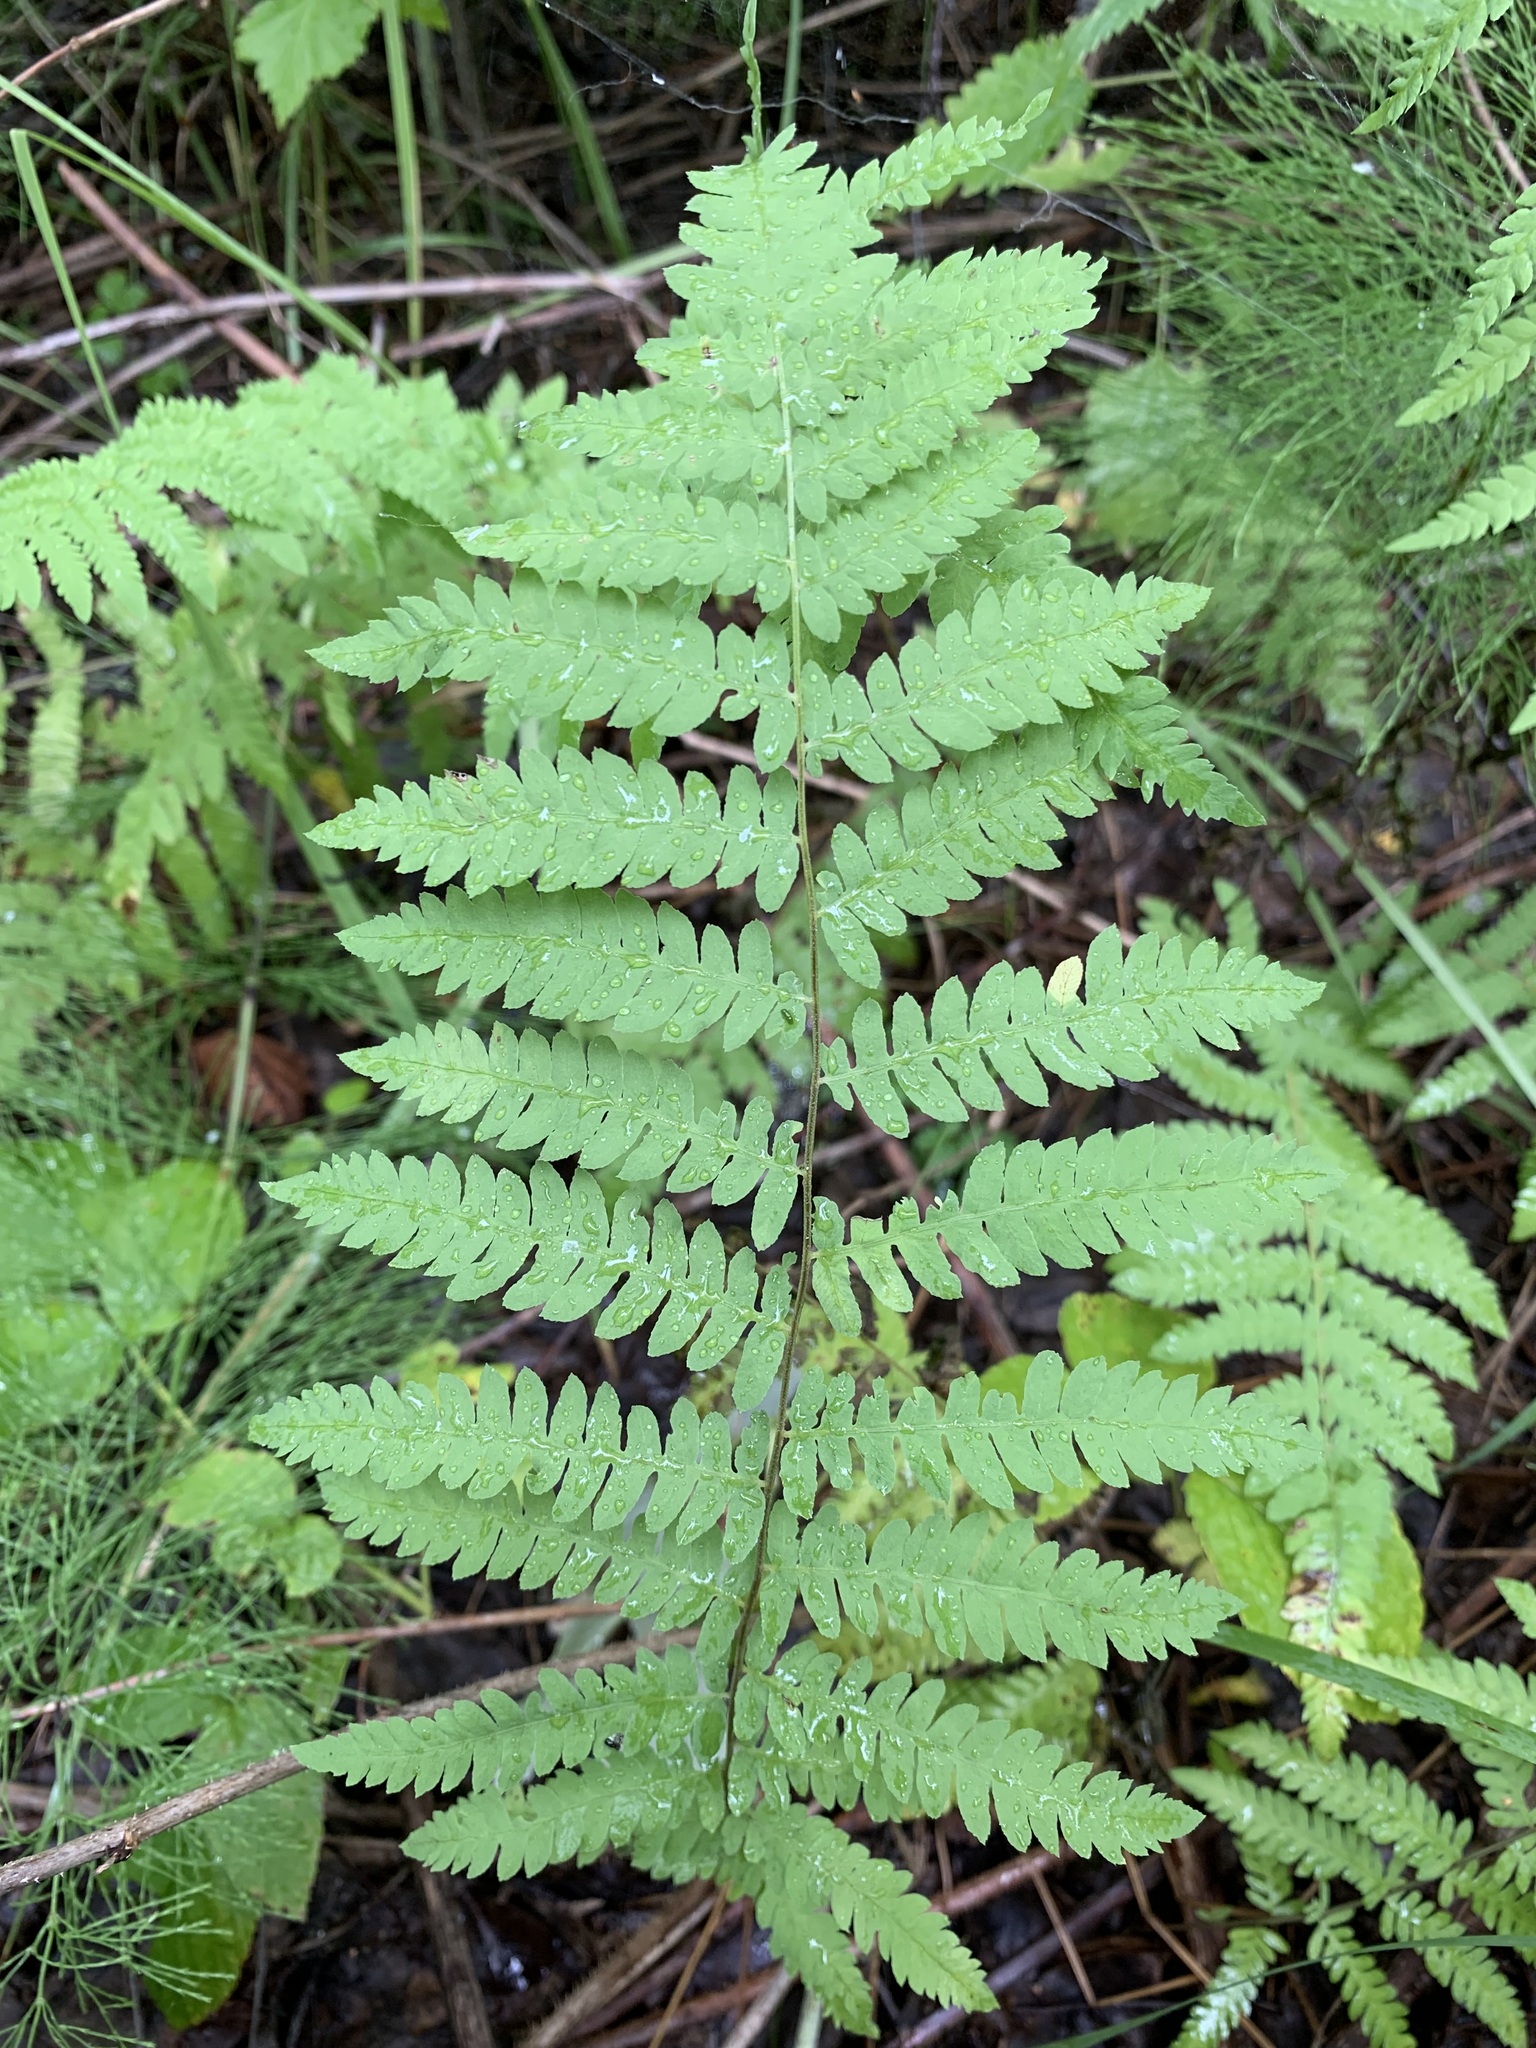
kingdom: Plantae
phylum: Tracheophyta
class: Polypodiopsida
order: Polypodiales
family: Thelypteridaceae
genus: Thelypteris
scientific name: Thelypteris palustris
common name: Marsh fern
